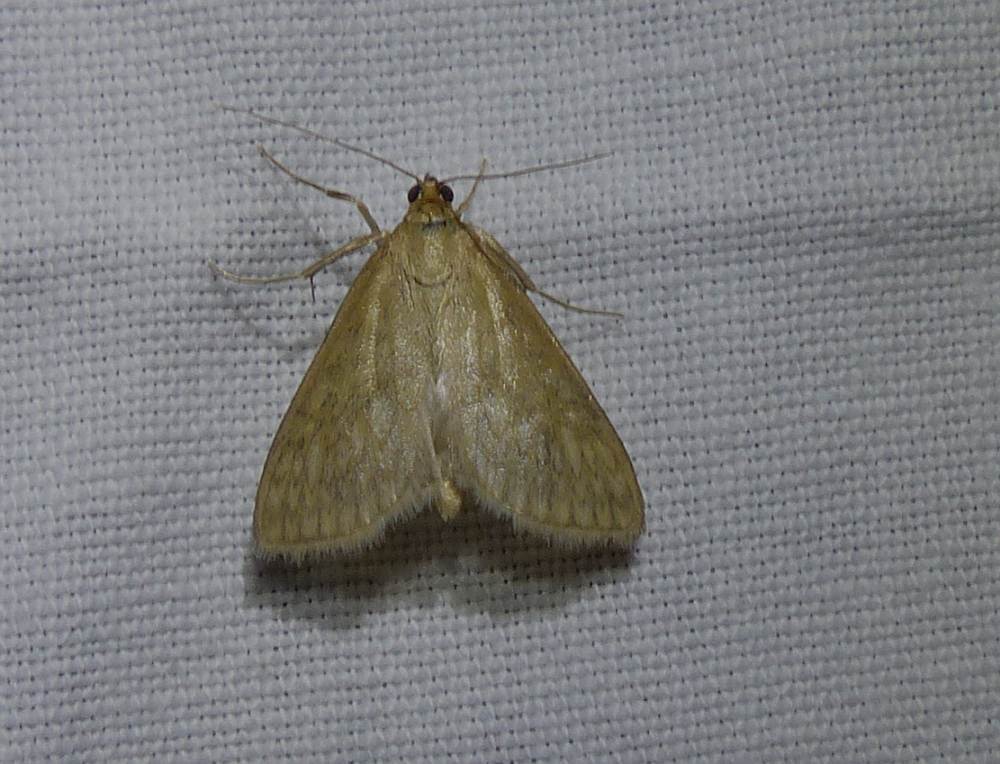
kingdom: Animalia
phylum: Arthropoda
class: Insecta
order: Lepidoptera
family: Crambidae
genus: Sitochroa
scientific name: Sitochroa chortalis
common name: Dimorphic sitochroa moth
